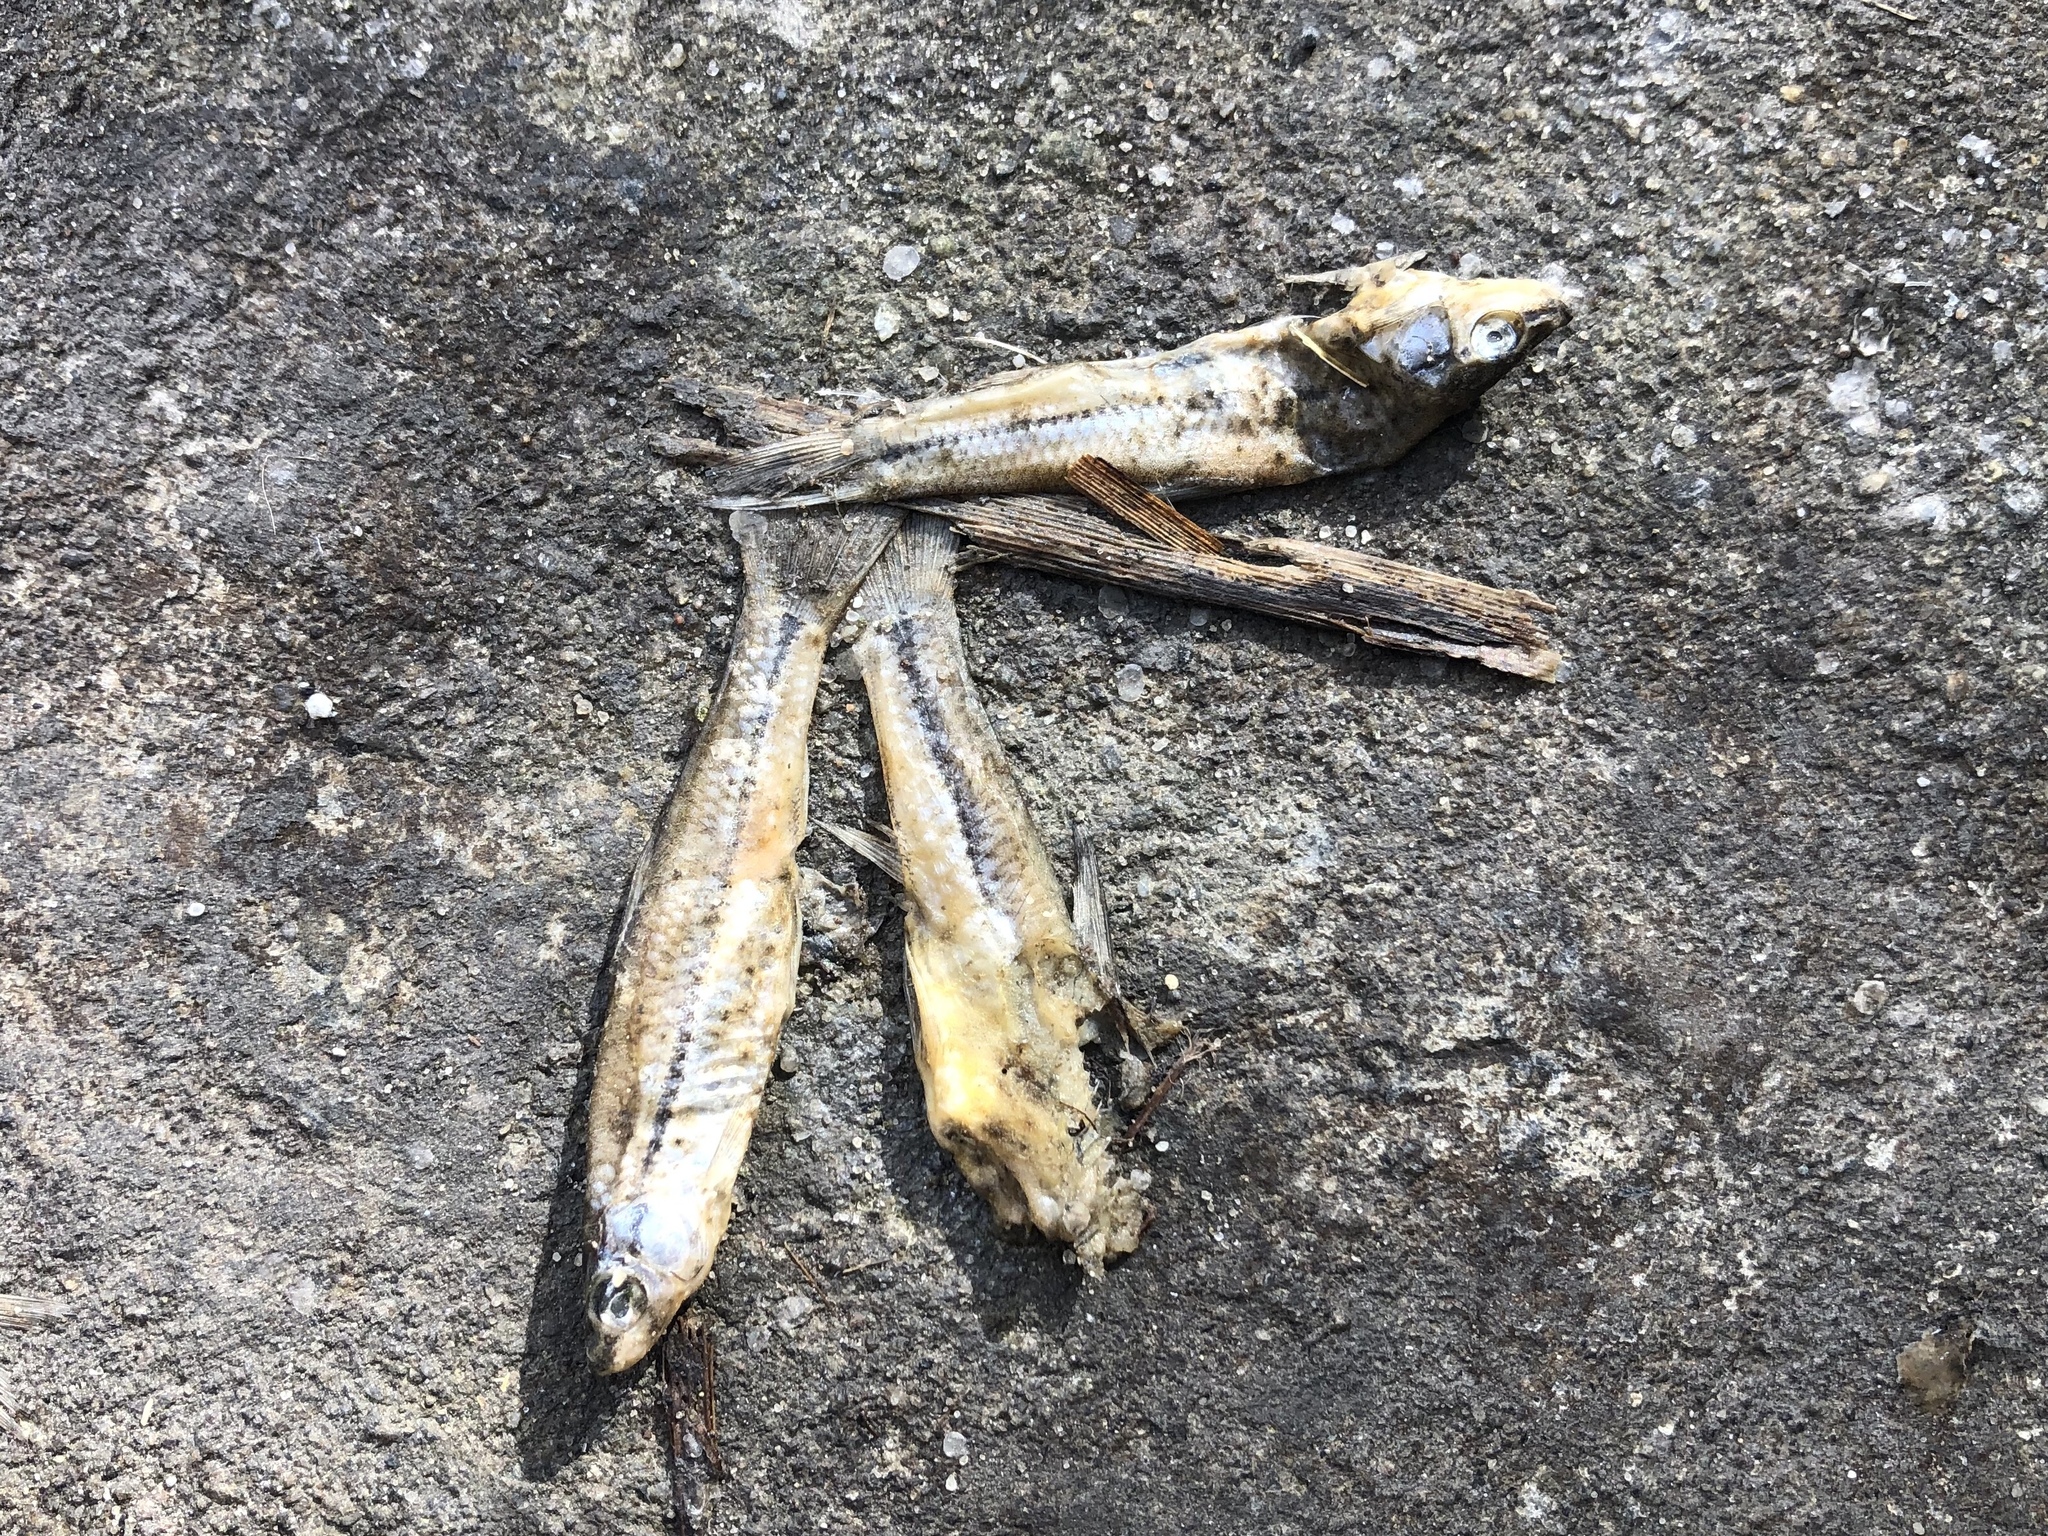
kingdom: Animalia
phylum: Chordata
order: Cypriniformes
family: Cyprinidae
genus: Pseudorasbora
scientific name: Pseudorasbora parva
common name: Topmouth gudgeon
